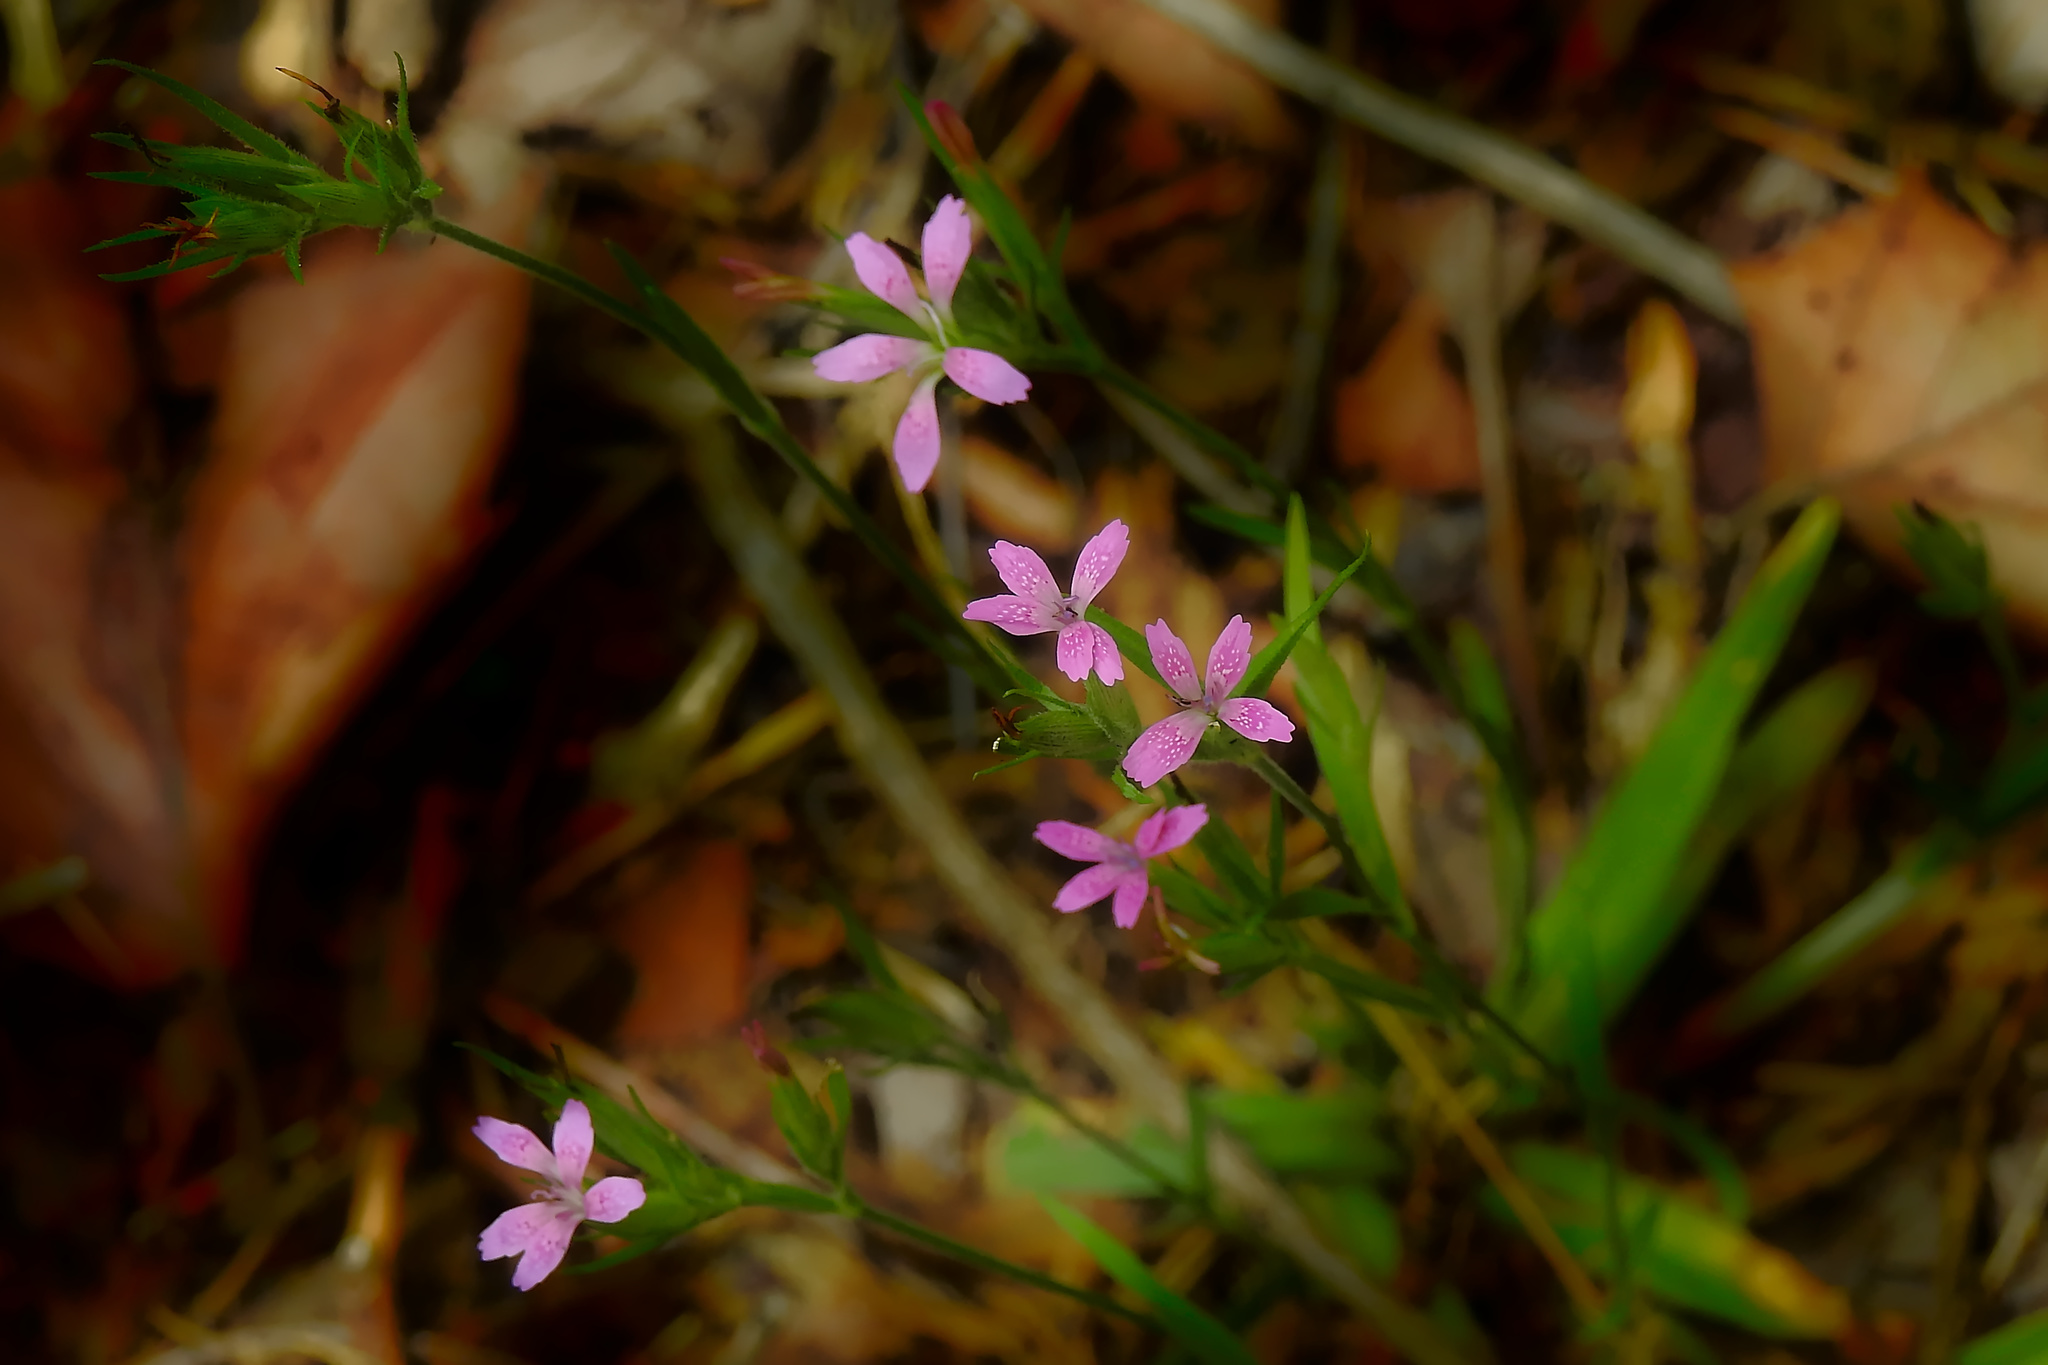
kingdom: Plantae
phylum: Tracheophyta
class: Magnoliopsida
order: Caryophyllales
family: Caryophyllaceae
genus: Dianthus
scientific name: Dianthus armeria
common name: Deptford pink
